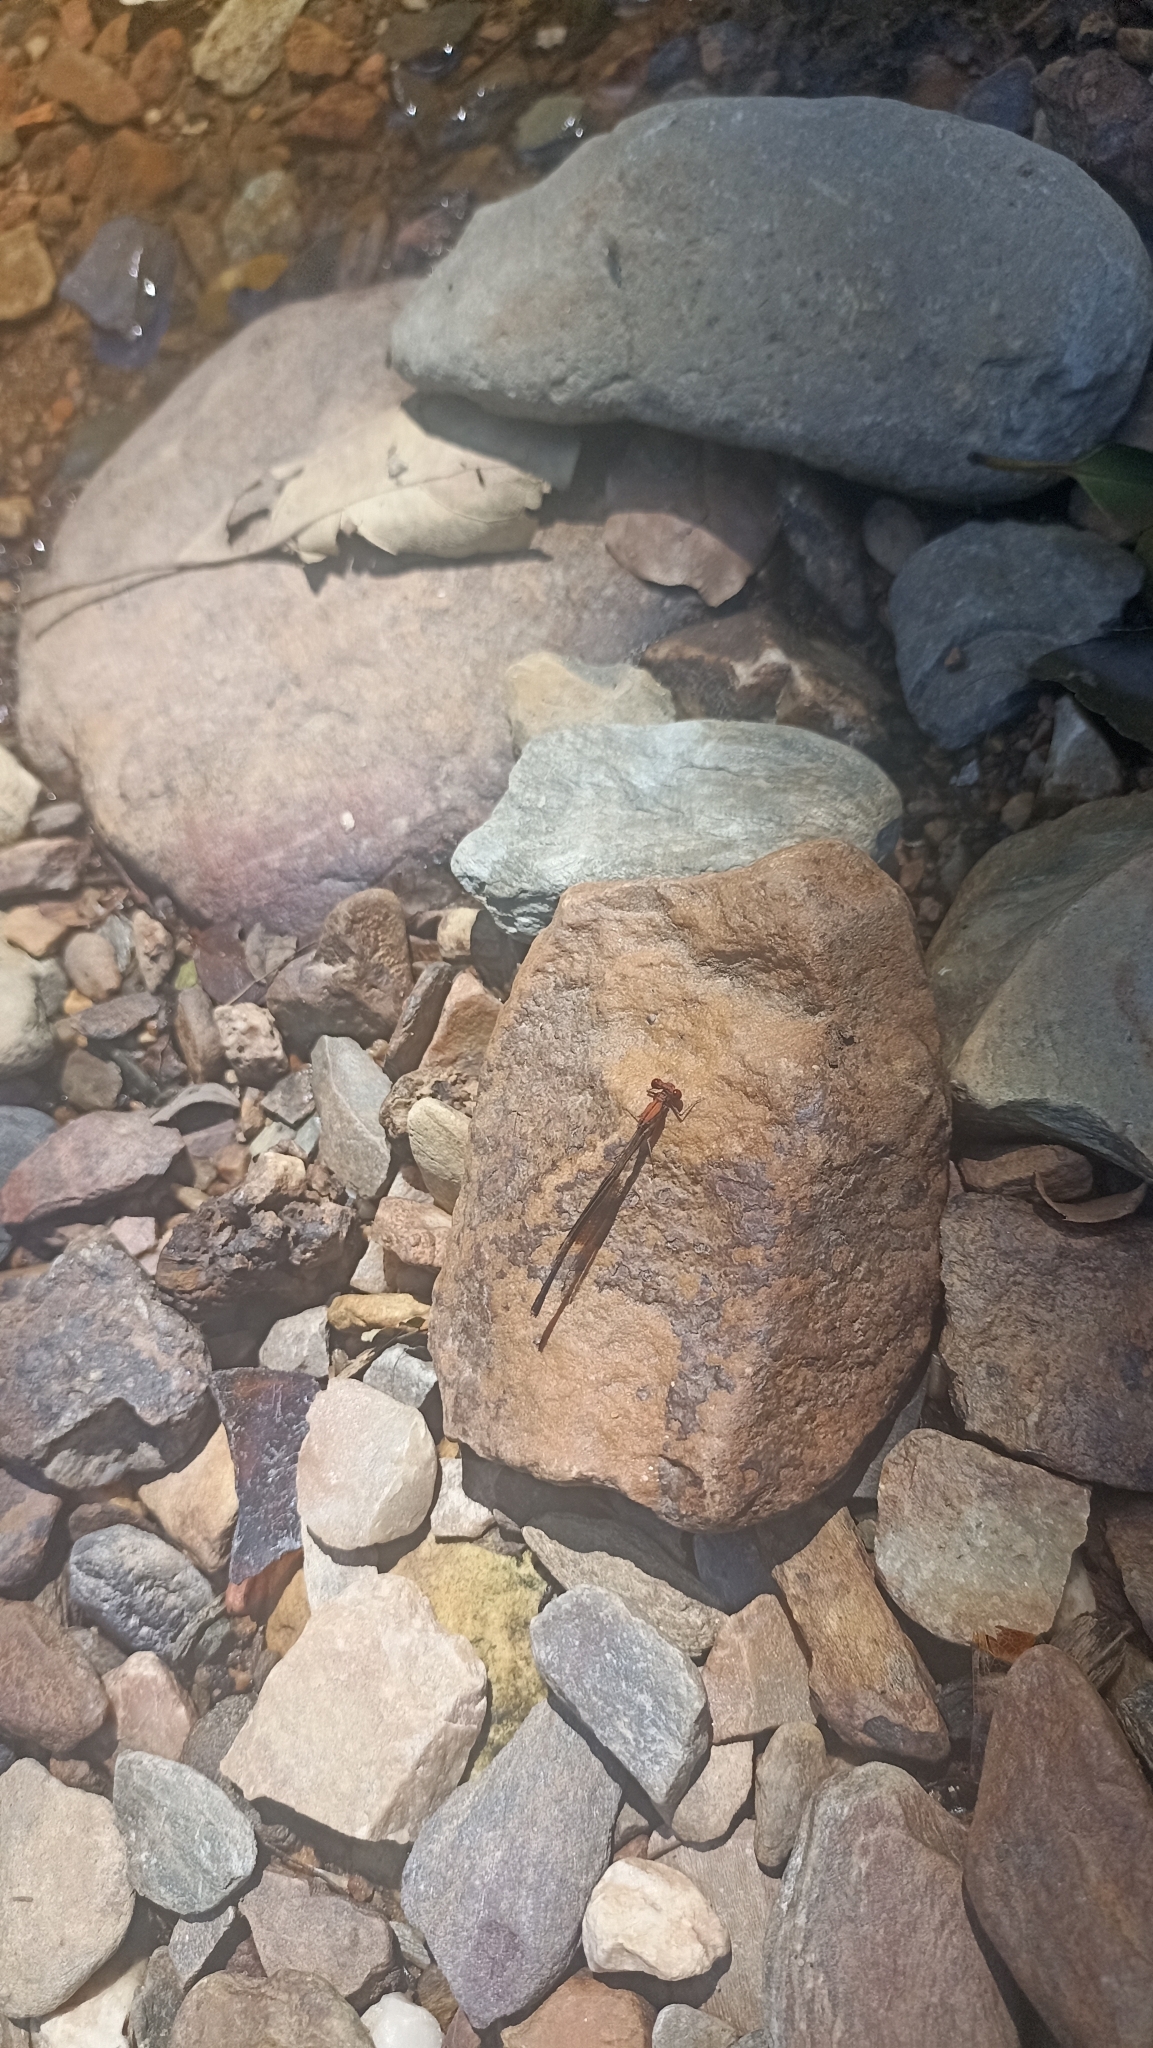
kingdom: Animalia
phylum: Arthropoda
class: Insecta
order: Odonata
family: Platycnemididae
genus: Disparoneura
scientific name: Disparoneura quadrimaculata
